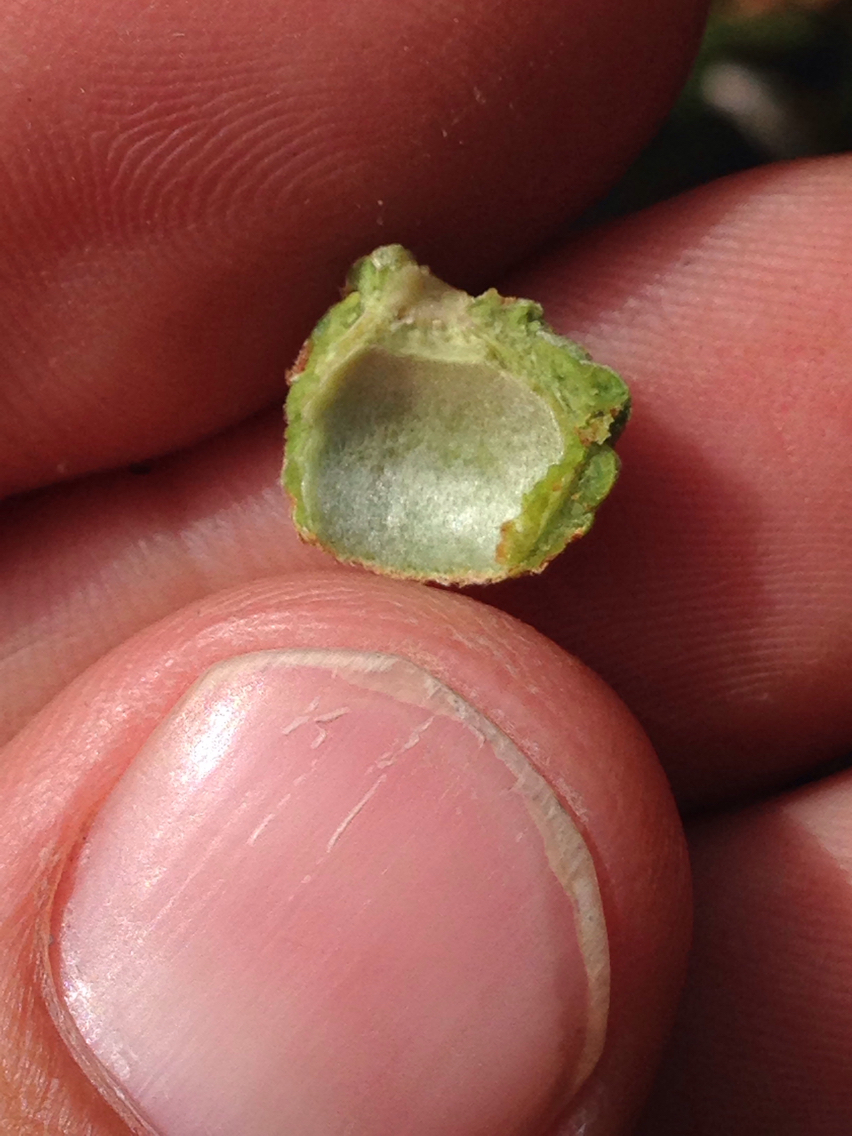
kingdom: Plantae
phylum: Tracheophyta
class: Magnoliopsida
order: Fagales
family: Fagaceae
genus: Quercus
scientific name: Quercus pacifica
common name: Channel island scrub oak
